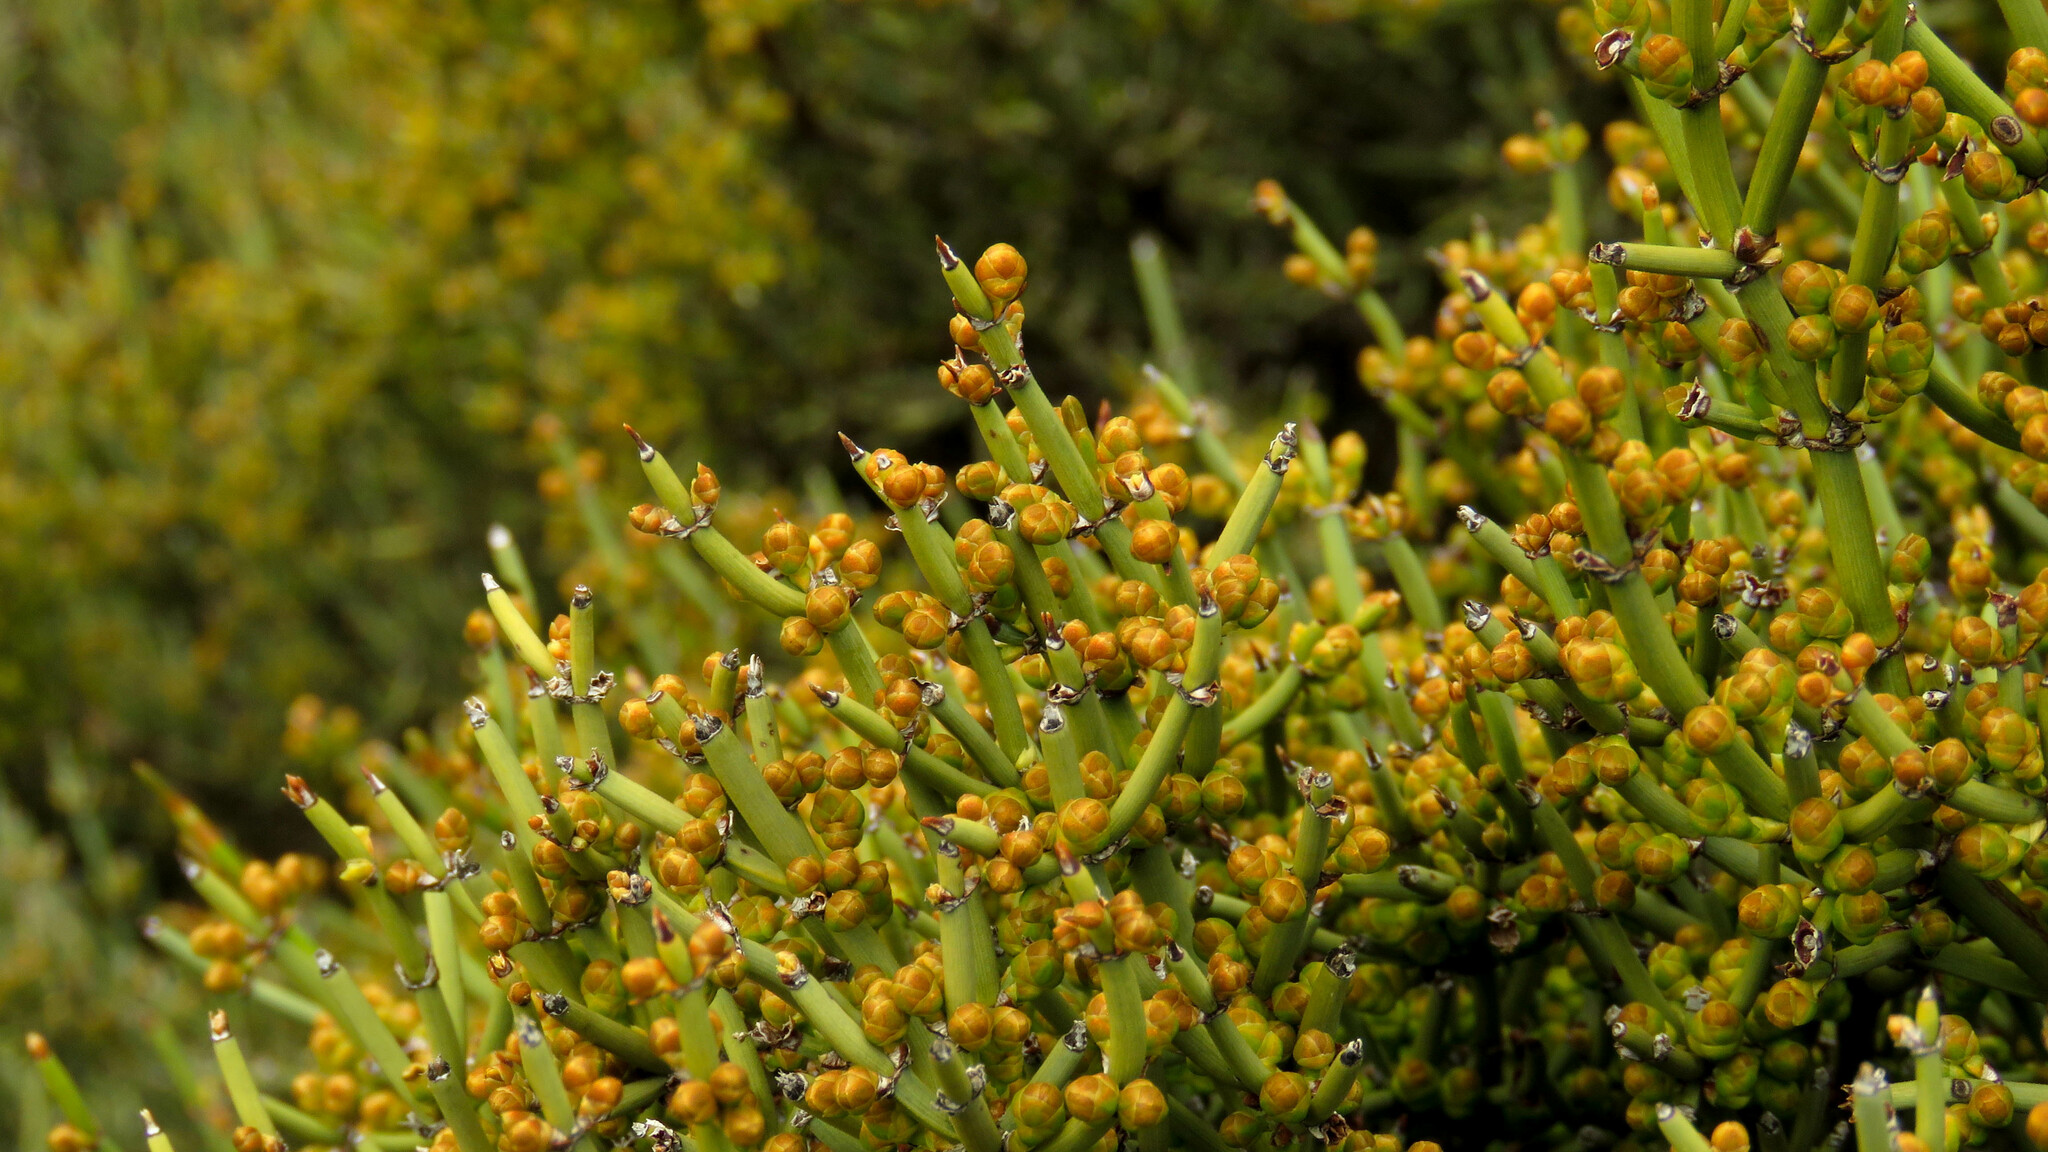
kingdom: Plantae
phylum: Tracheophyta
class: Gnetopsida
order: Ephedrales
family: Ephedraceae
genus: Ephedra
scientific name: Ephedra chilensis
